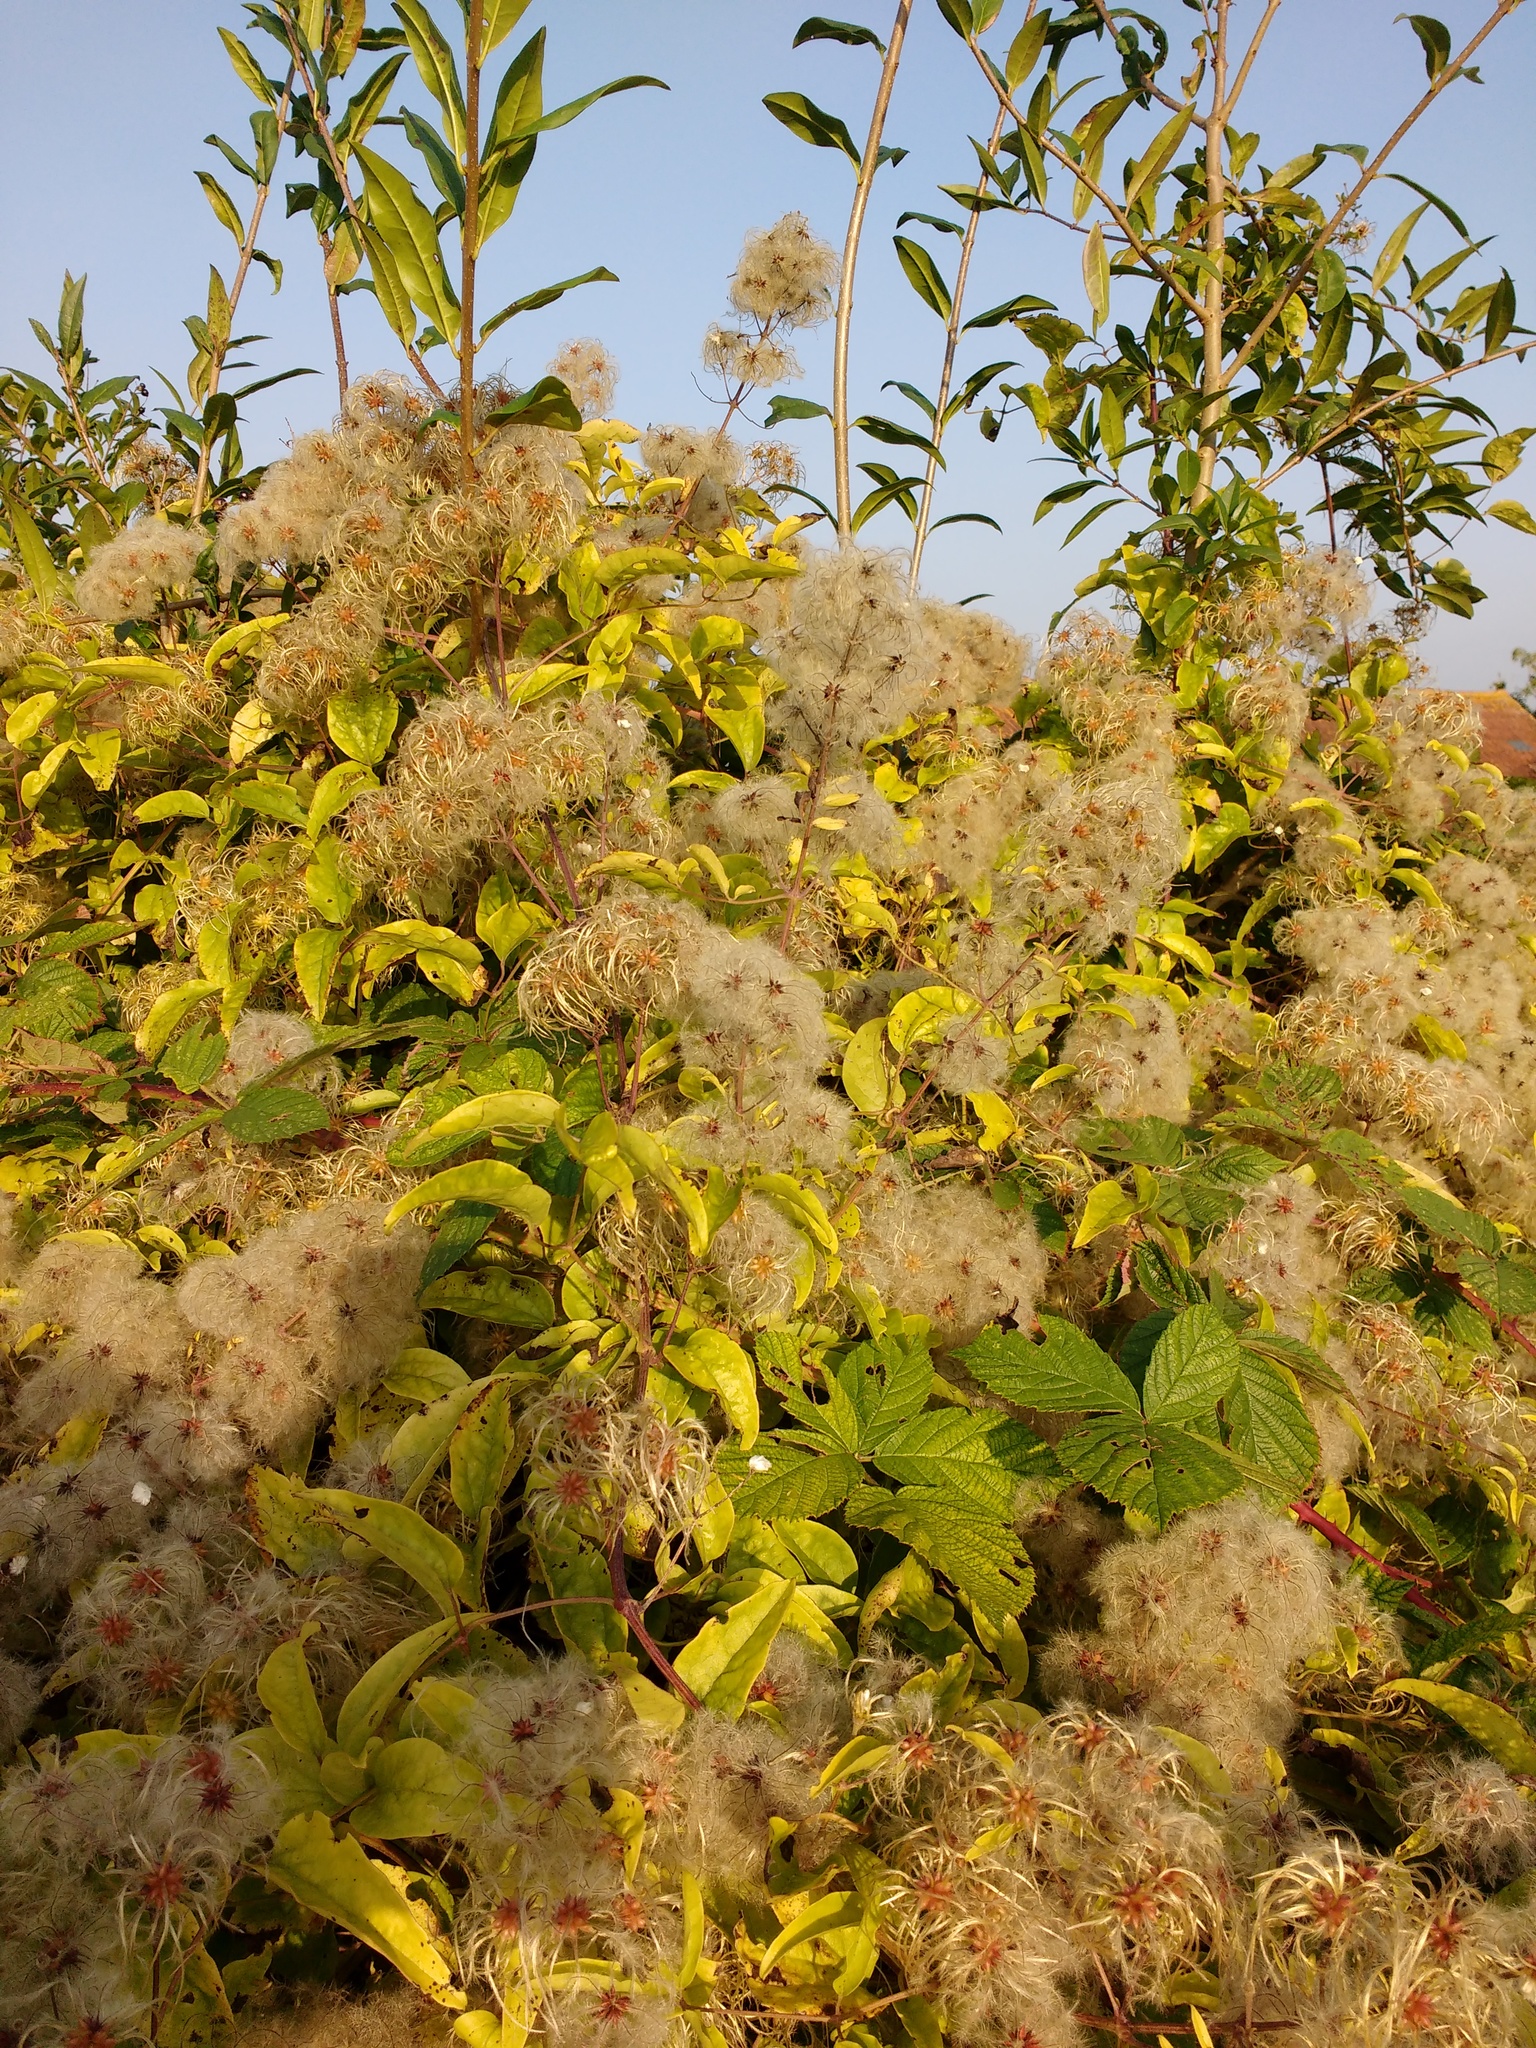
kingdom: Plantae
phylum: Tracheophyta
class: Magnoliopsida
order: Ranunculales
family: Ranunculaceae
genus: Clematis
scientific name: Clematis vitalba
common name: Evergreen clematis
